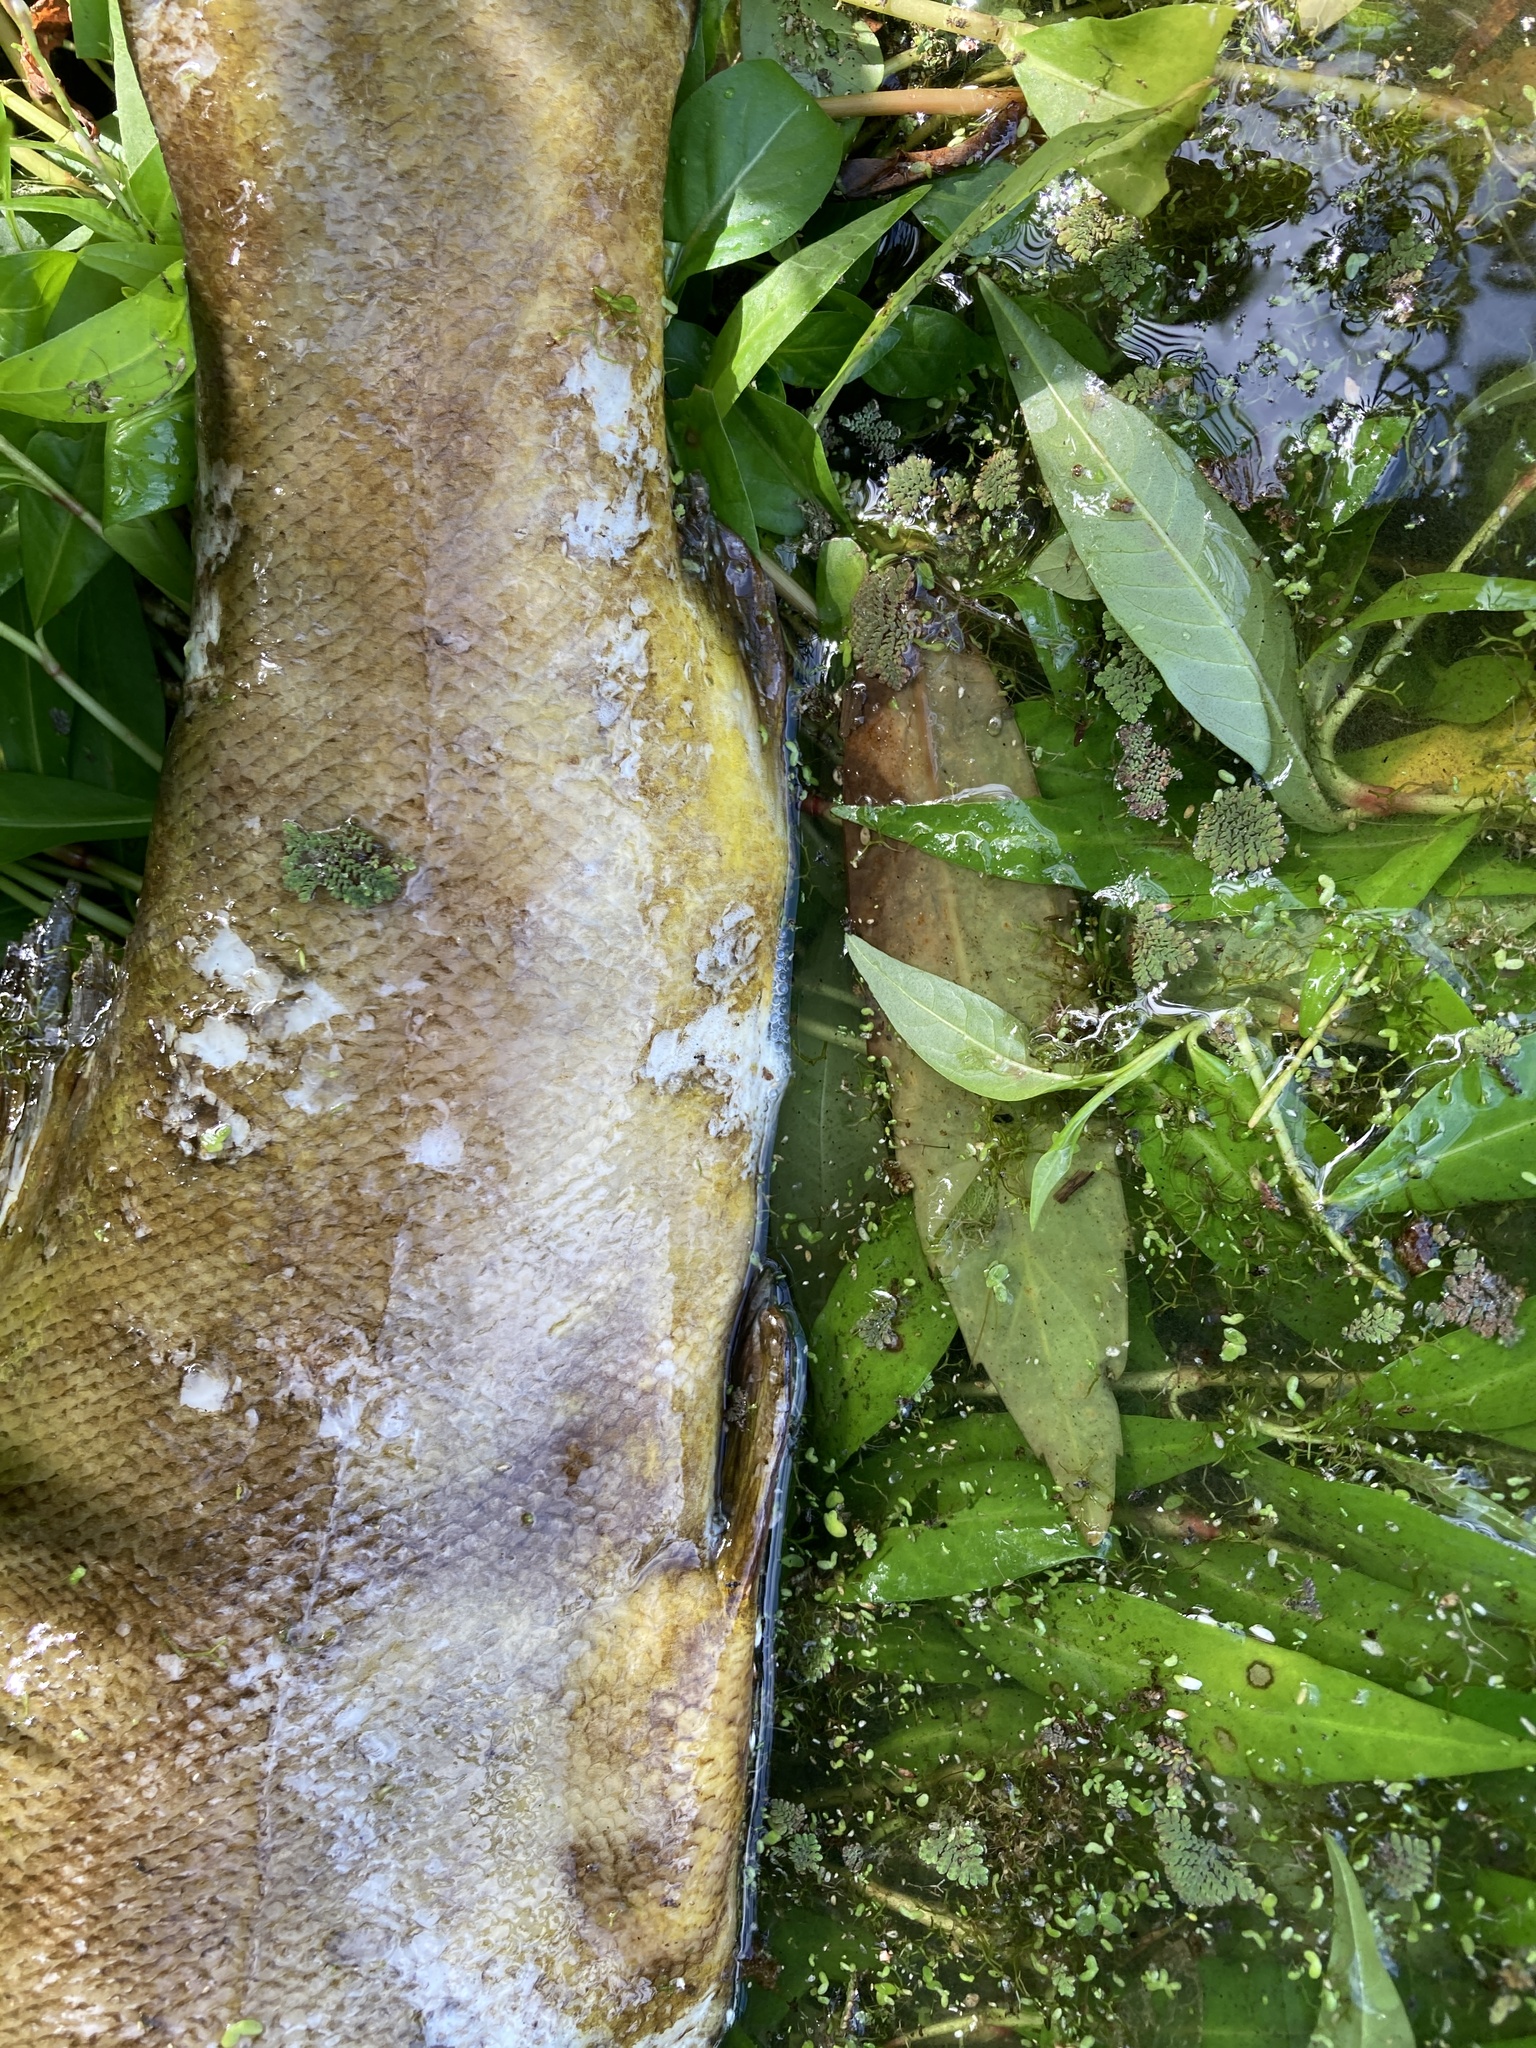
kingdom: Animalia
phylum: Chordata
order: Cypriniformes
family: Cyprinidae
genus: Tinca
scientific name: Tinca tinca
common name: Tench
